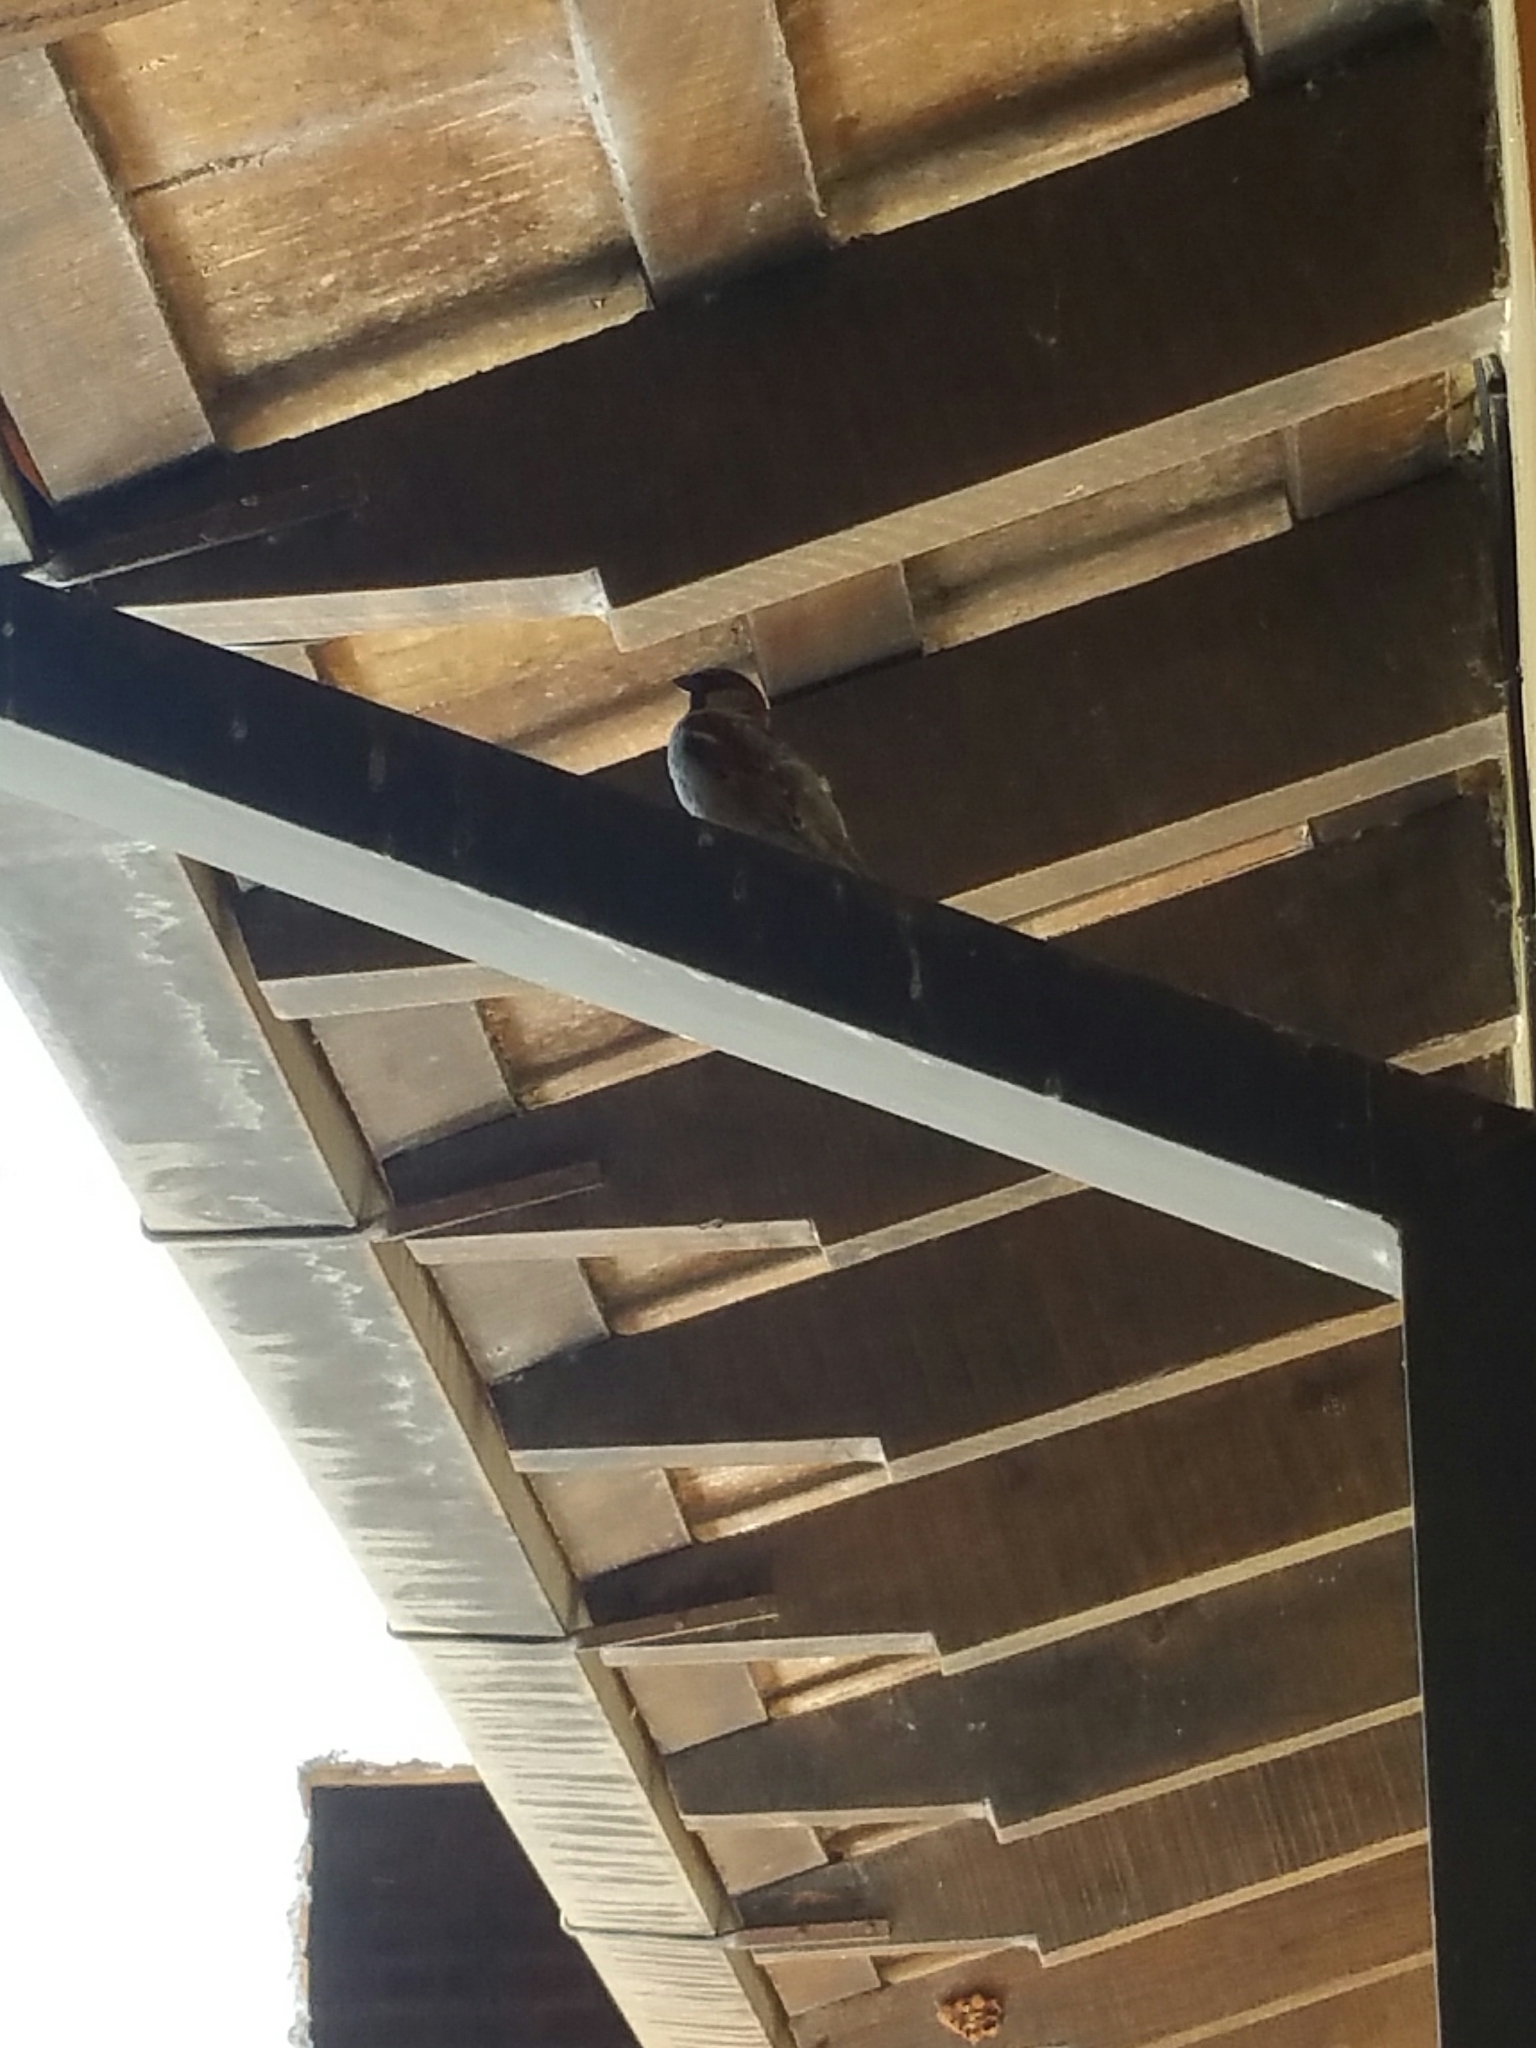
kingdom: Animalia
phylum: Chordata
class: Aves
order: Passeriformes
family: Passeridae
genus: Passer
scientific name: Passer domesticus
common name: House sparrow
